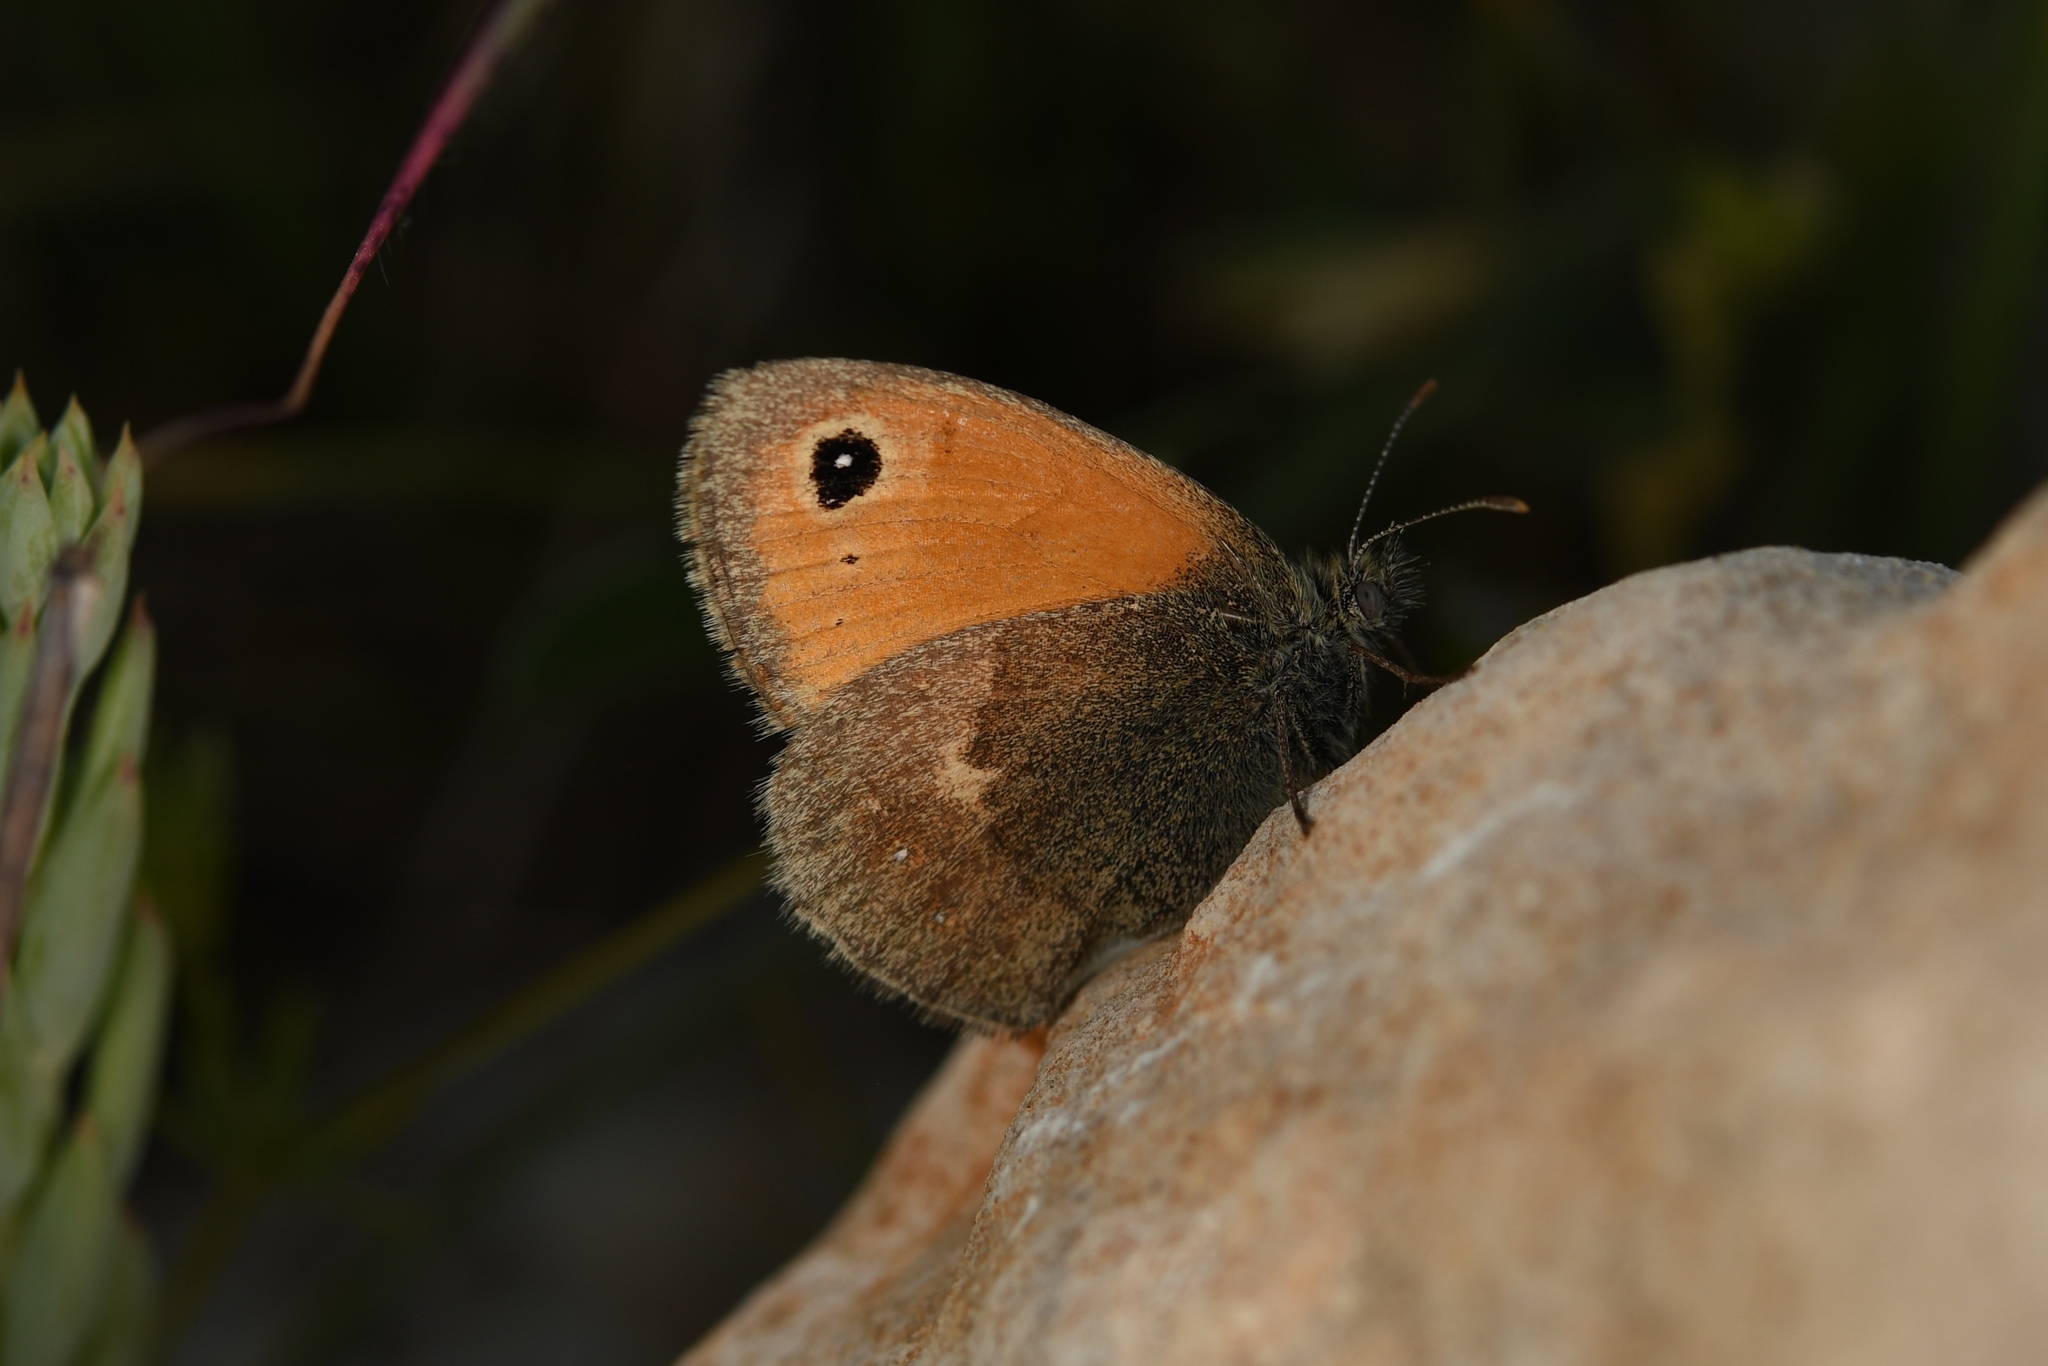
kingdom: Animalia
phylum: Arthropoda
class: Insecta
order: Lepidoptera
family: Nymphalidae
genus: Coenonympha
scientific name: Coenonympha pamphilus
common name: Small heath
